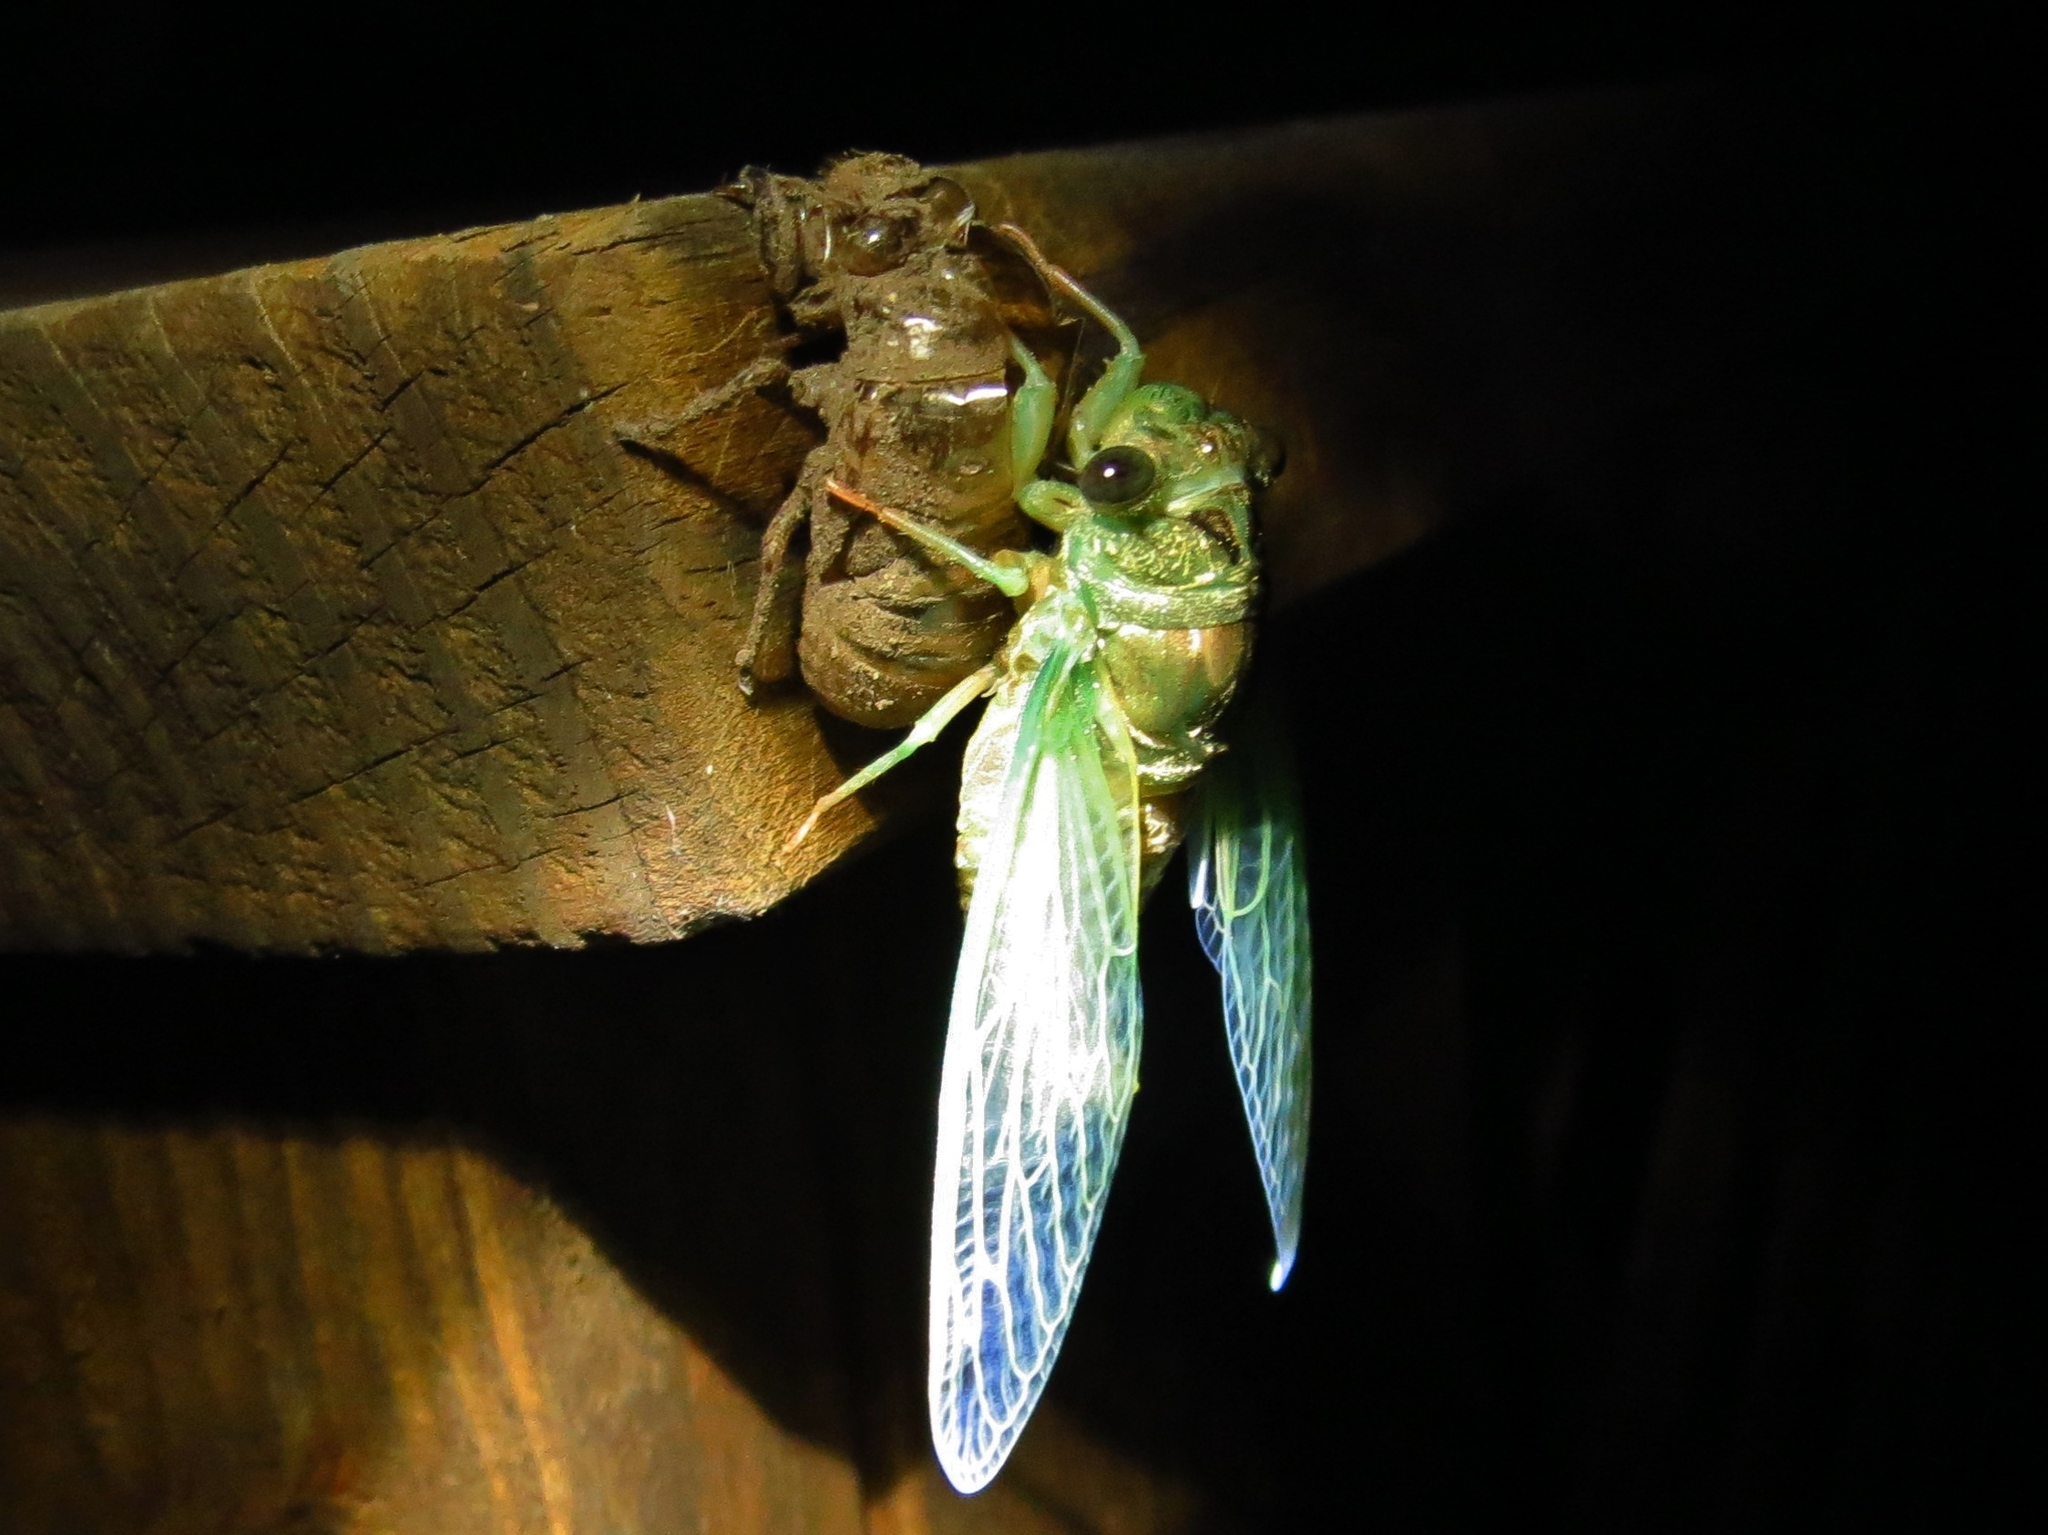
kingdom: Animalia
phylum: Arthropoda
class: Insecta
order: Hemiptera
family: Cicadidae
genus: Neotibicen
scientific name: Neotibicen pruinosus
